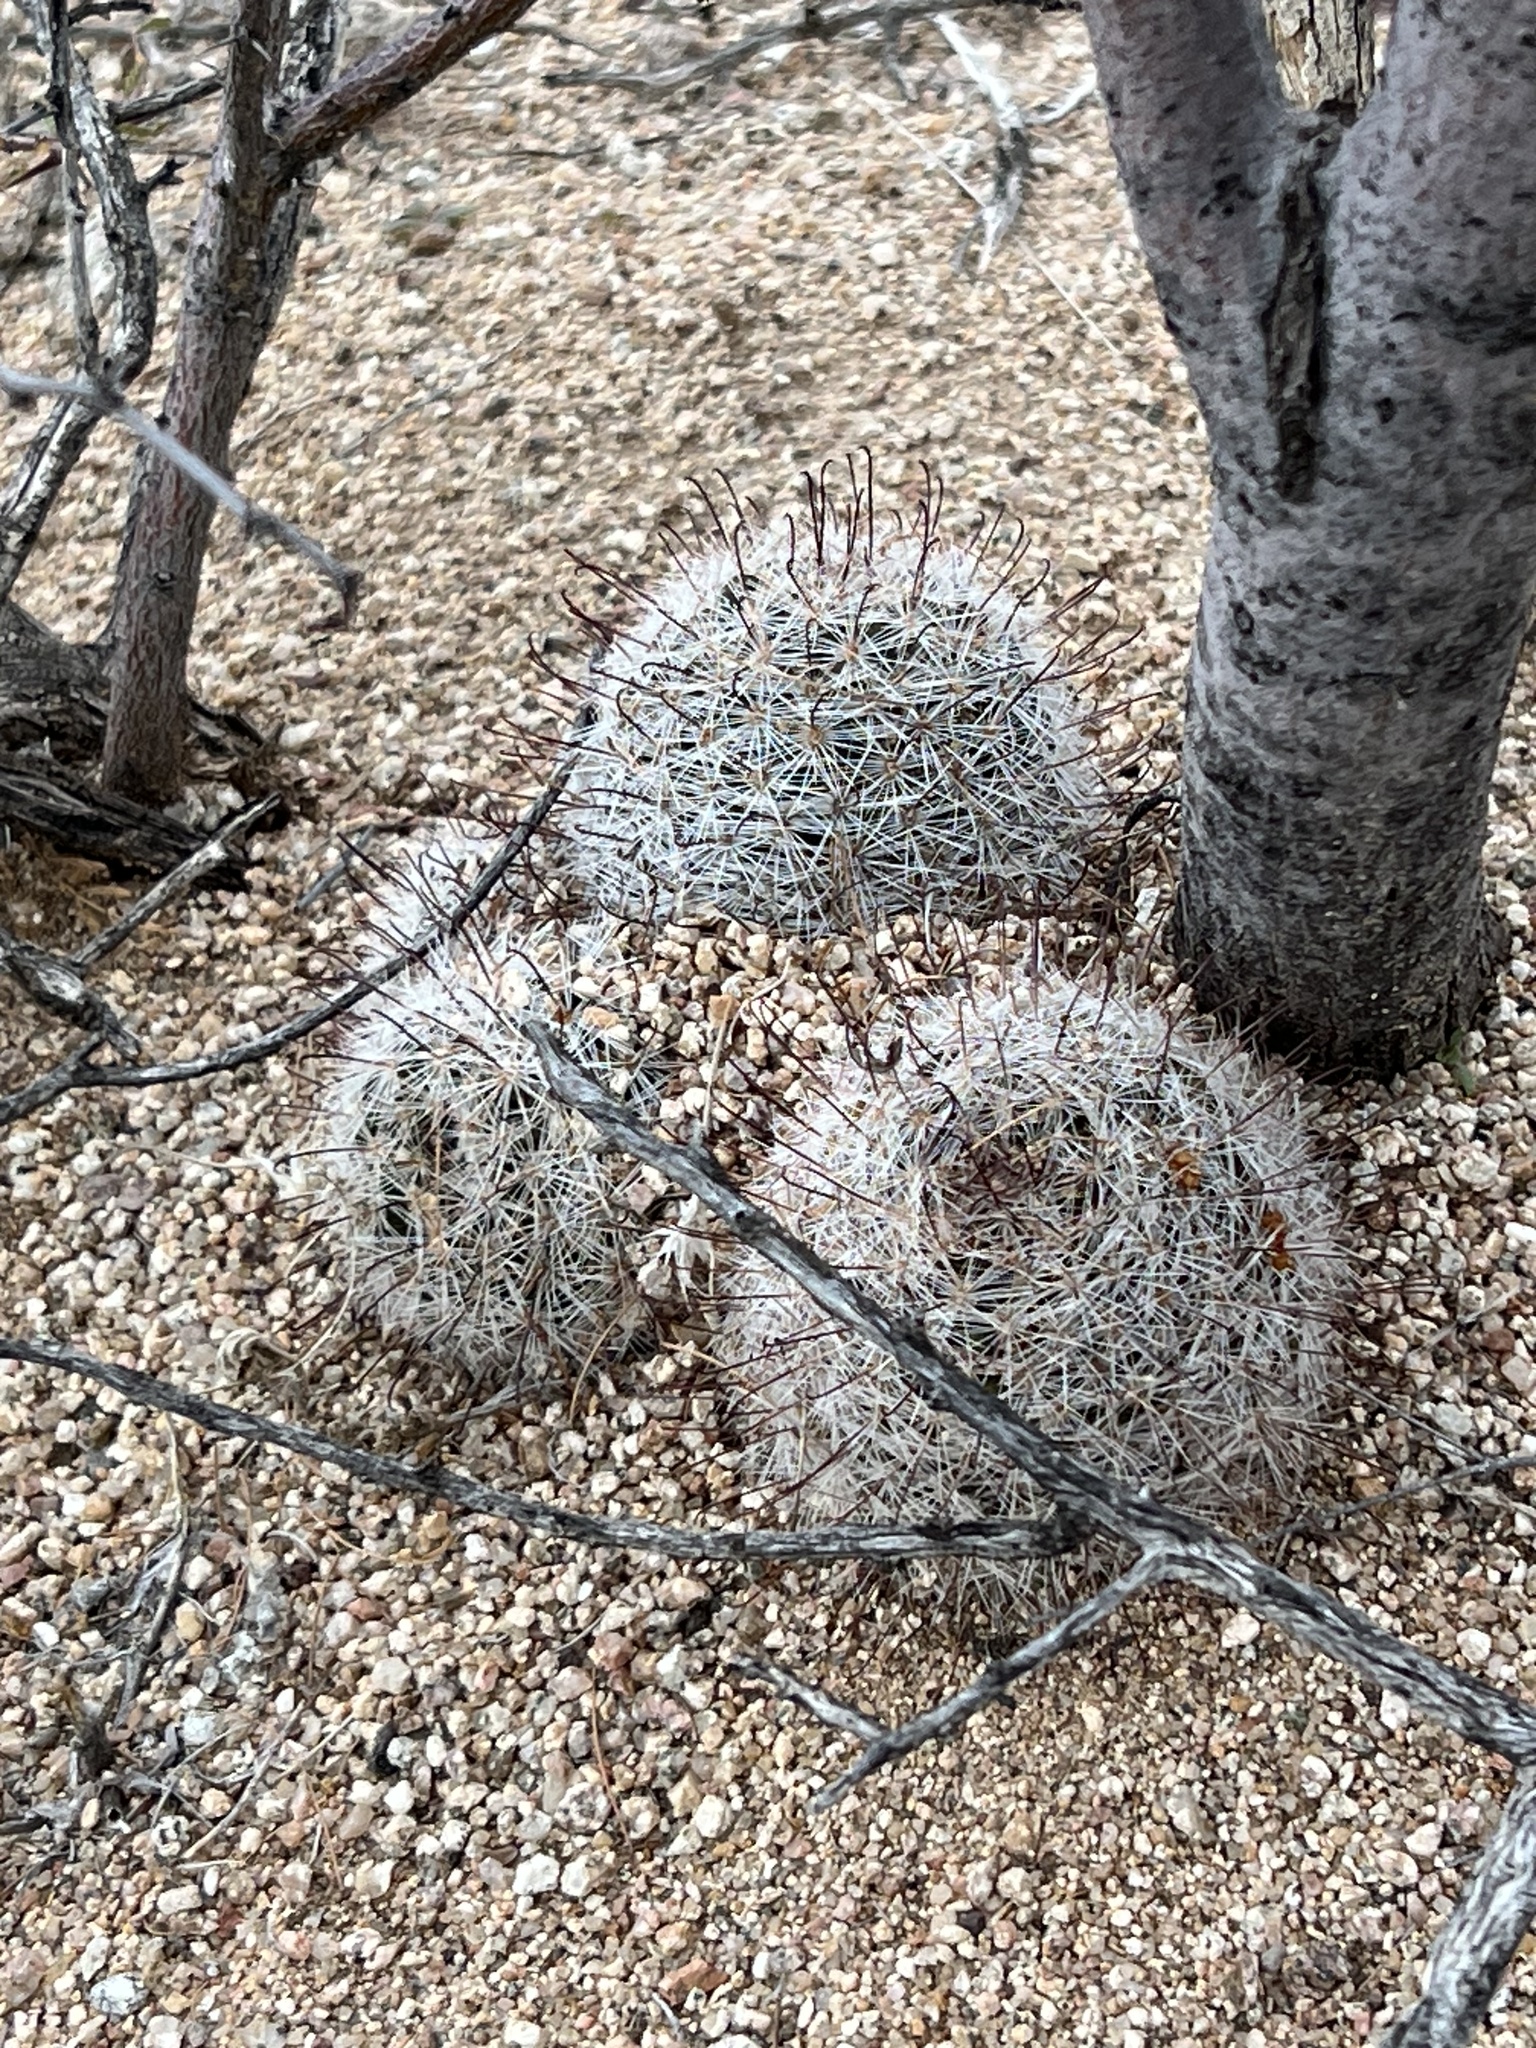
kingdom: Plantae
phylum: Tracheophyta
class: Magnoliopsida
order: Caryophyllales
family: Cactaceae
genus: Cochemiea
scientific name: Cochemiea grahamii
